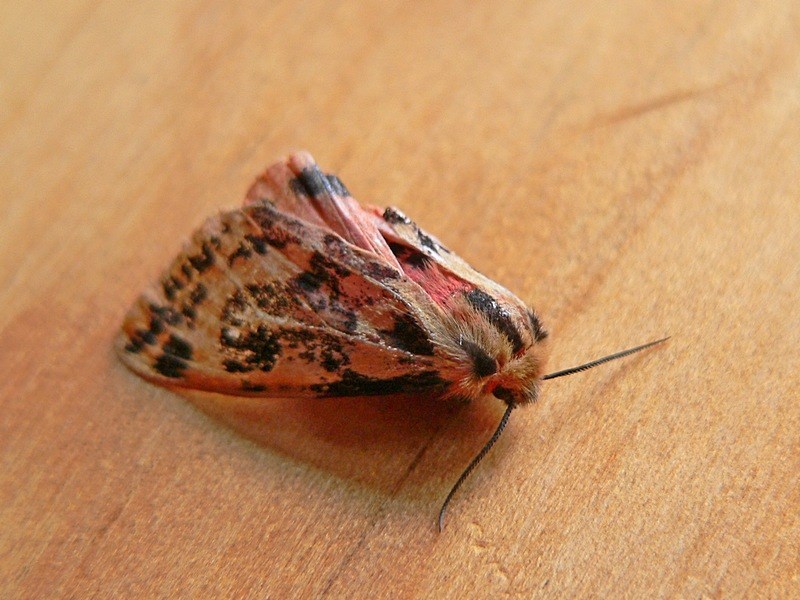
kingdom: Animalia
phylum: Arthropoda
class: Insecta
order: Lepidoptera
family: Erebidae
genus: Ardices
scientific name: Ardices curvata
